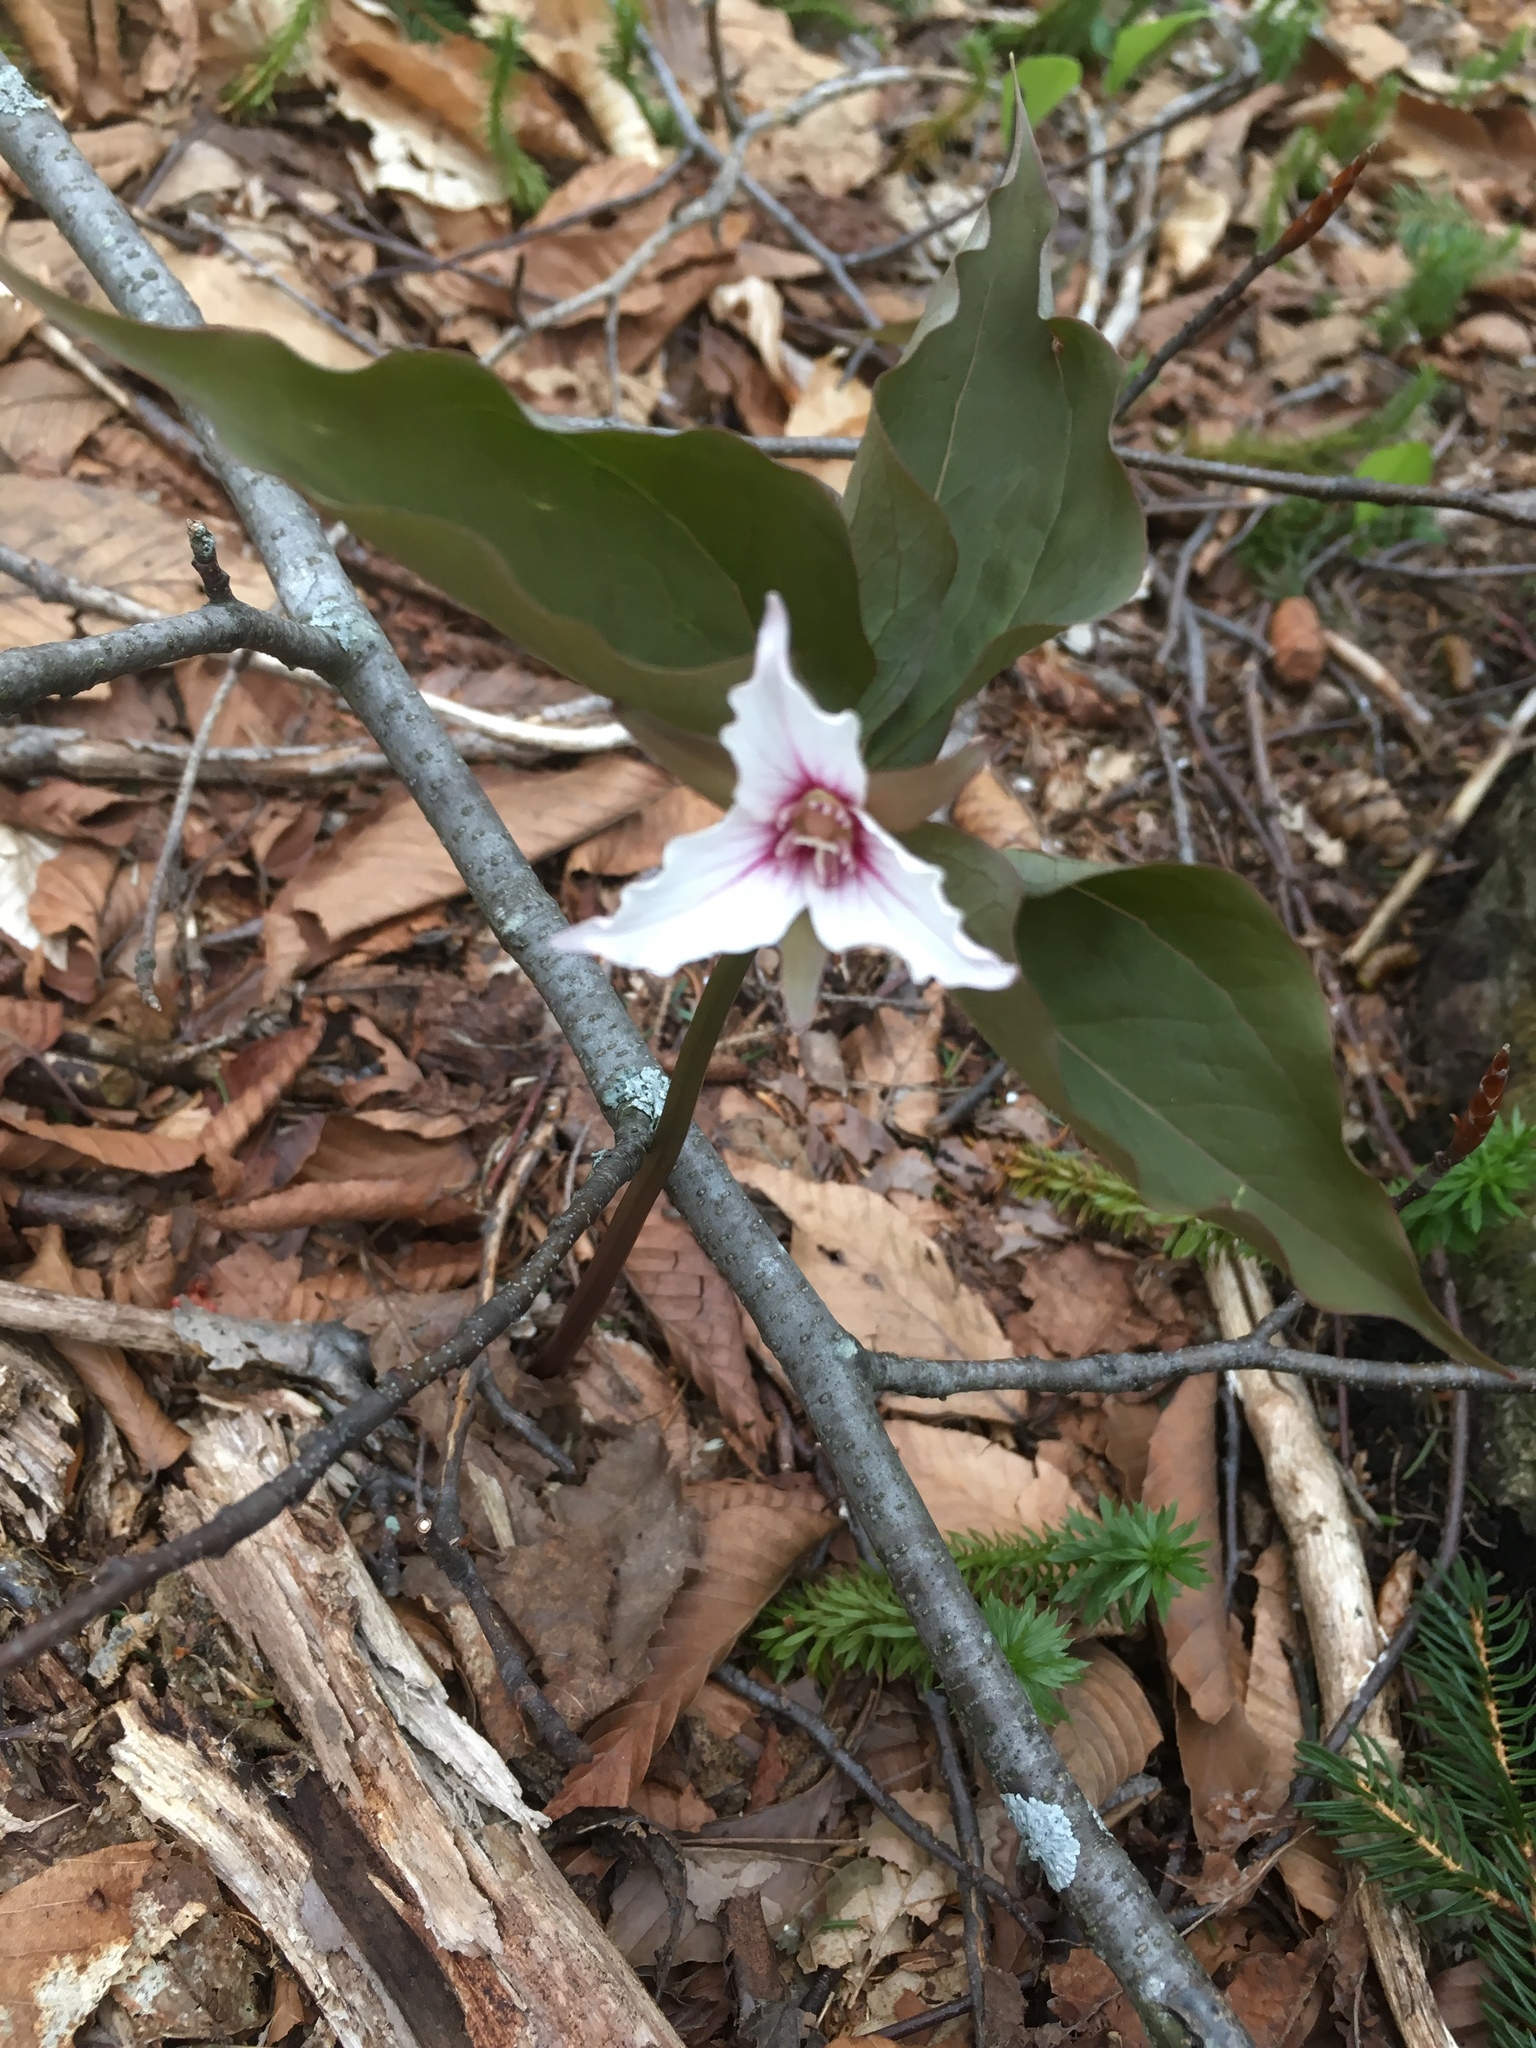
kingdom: Plantae
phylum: Tracheophyta
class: Liliopsida
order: Liliales
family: Melanthiaceae
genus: Trillium
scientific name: Trillium undulatum
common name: Paint trillium
